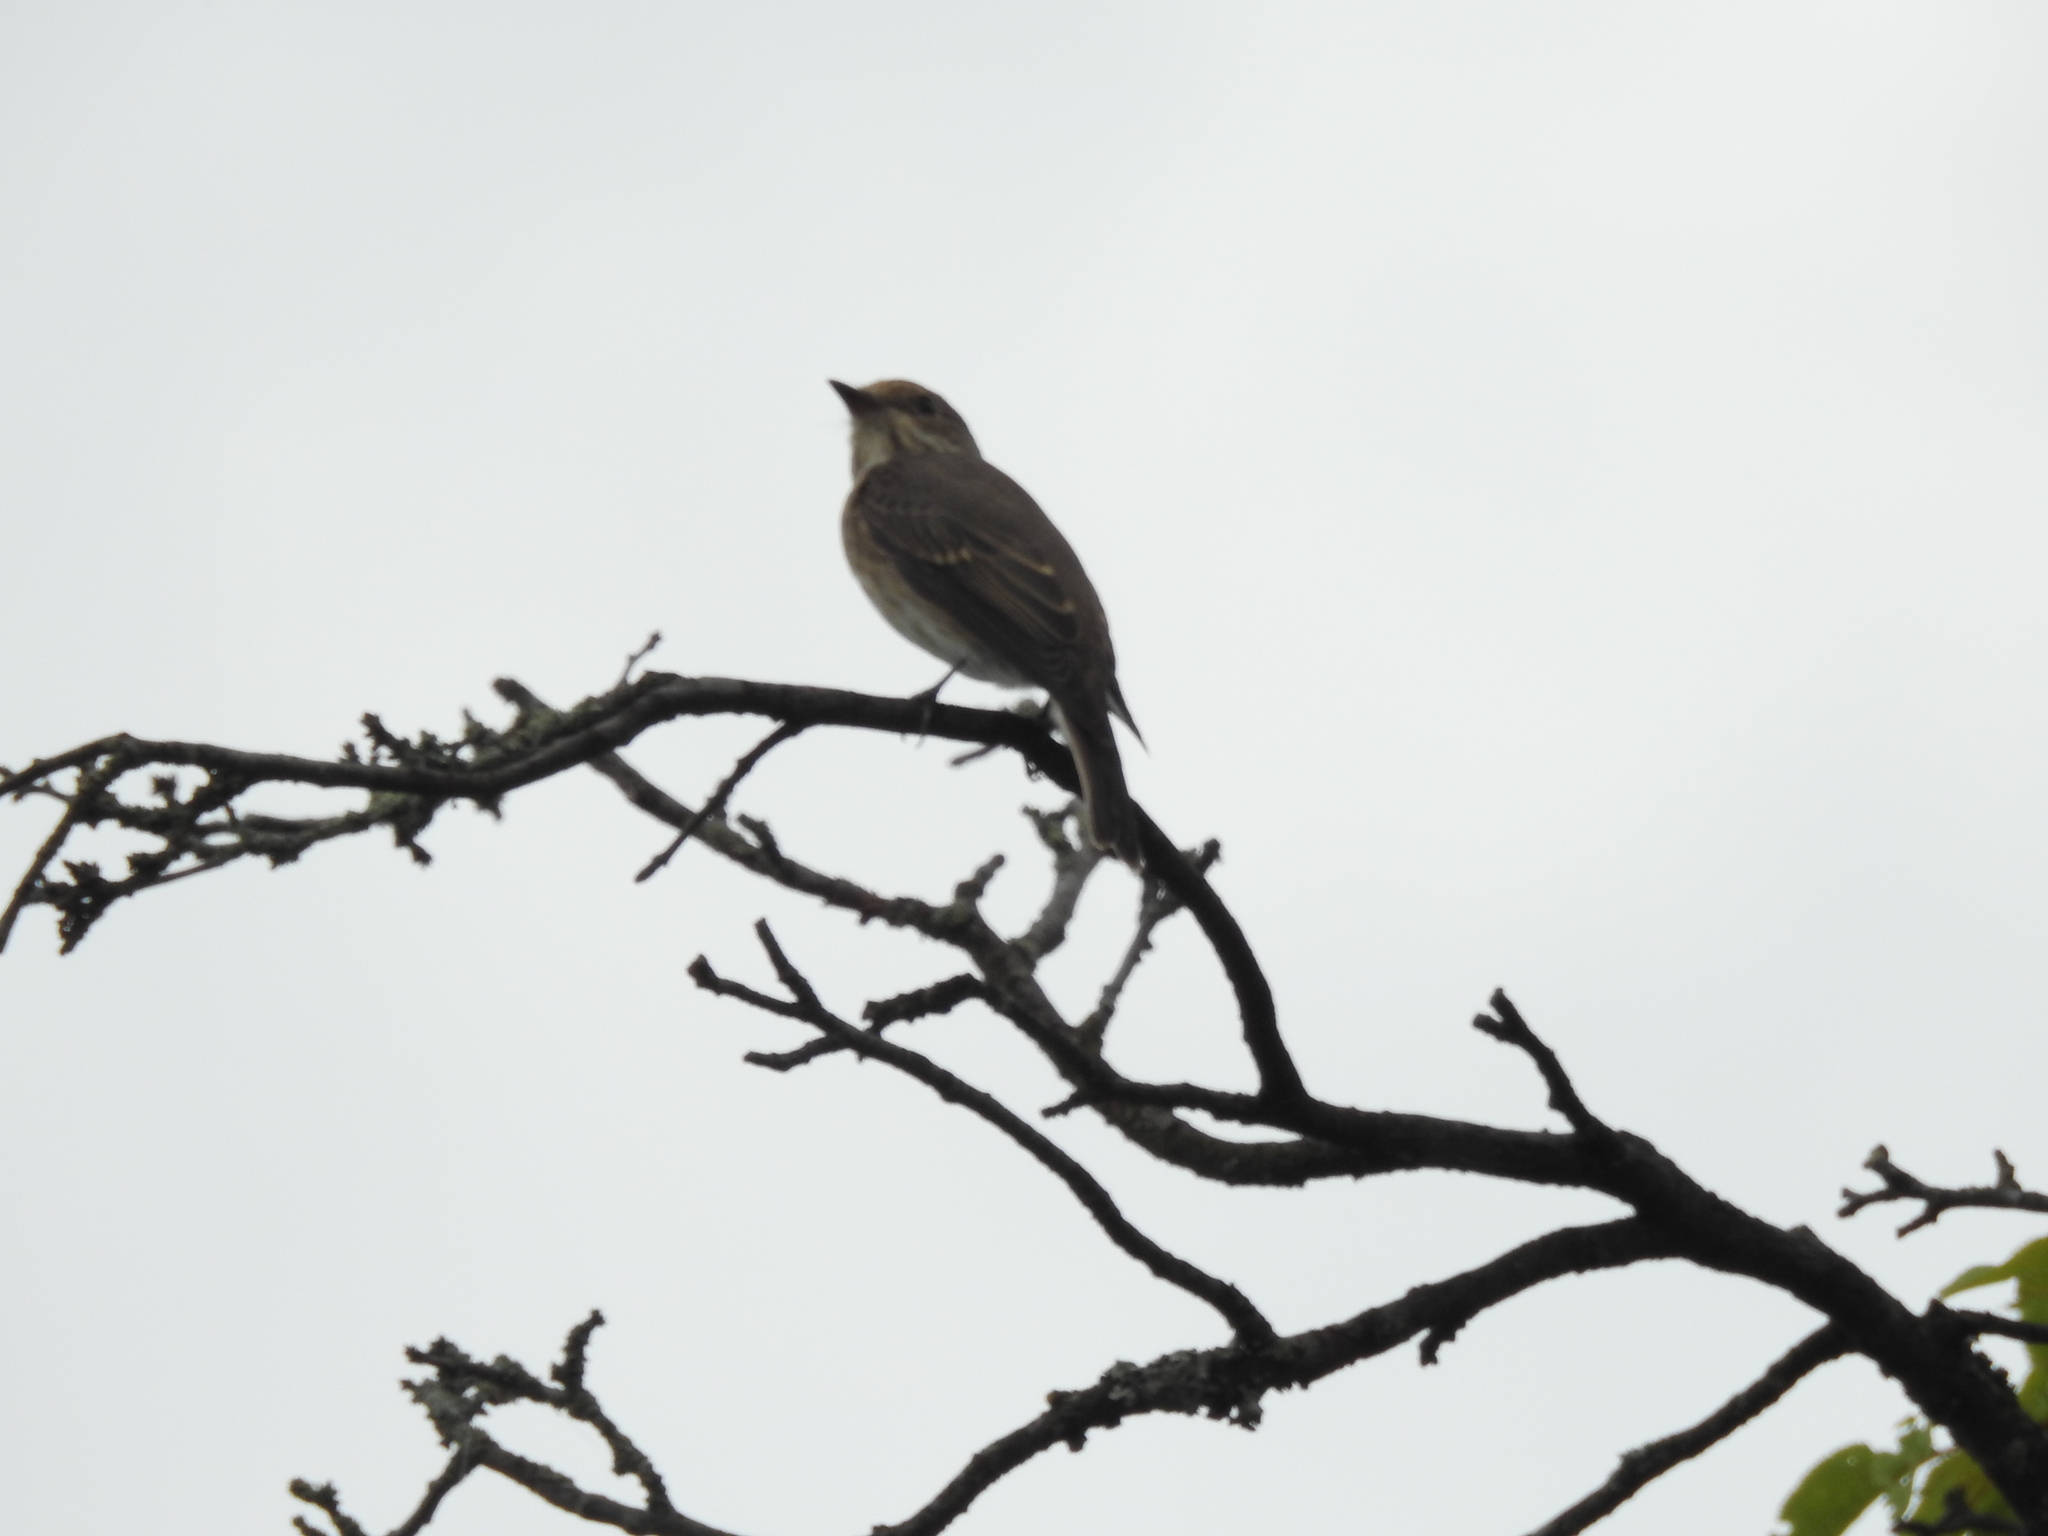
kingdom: Animalia
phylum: Chordata
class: Aves
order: Passeriformes
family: Muscicapidae
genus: Muscicapa
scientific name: Muscicapa striata
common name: Spotted flycatcher
